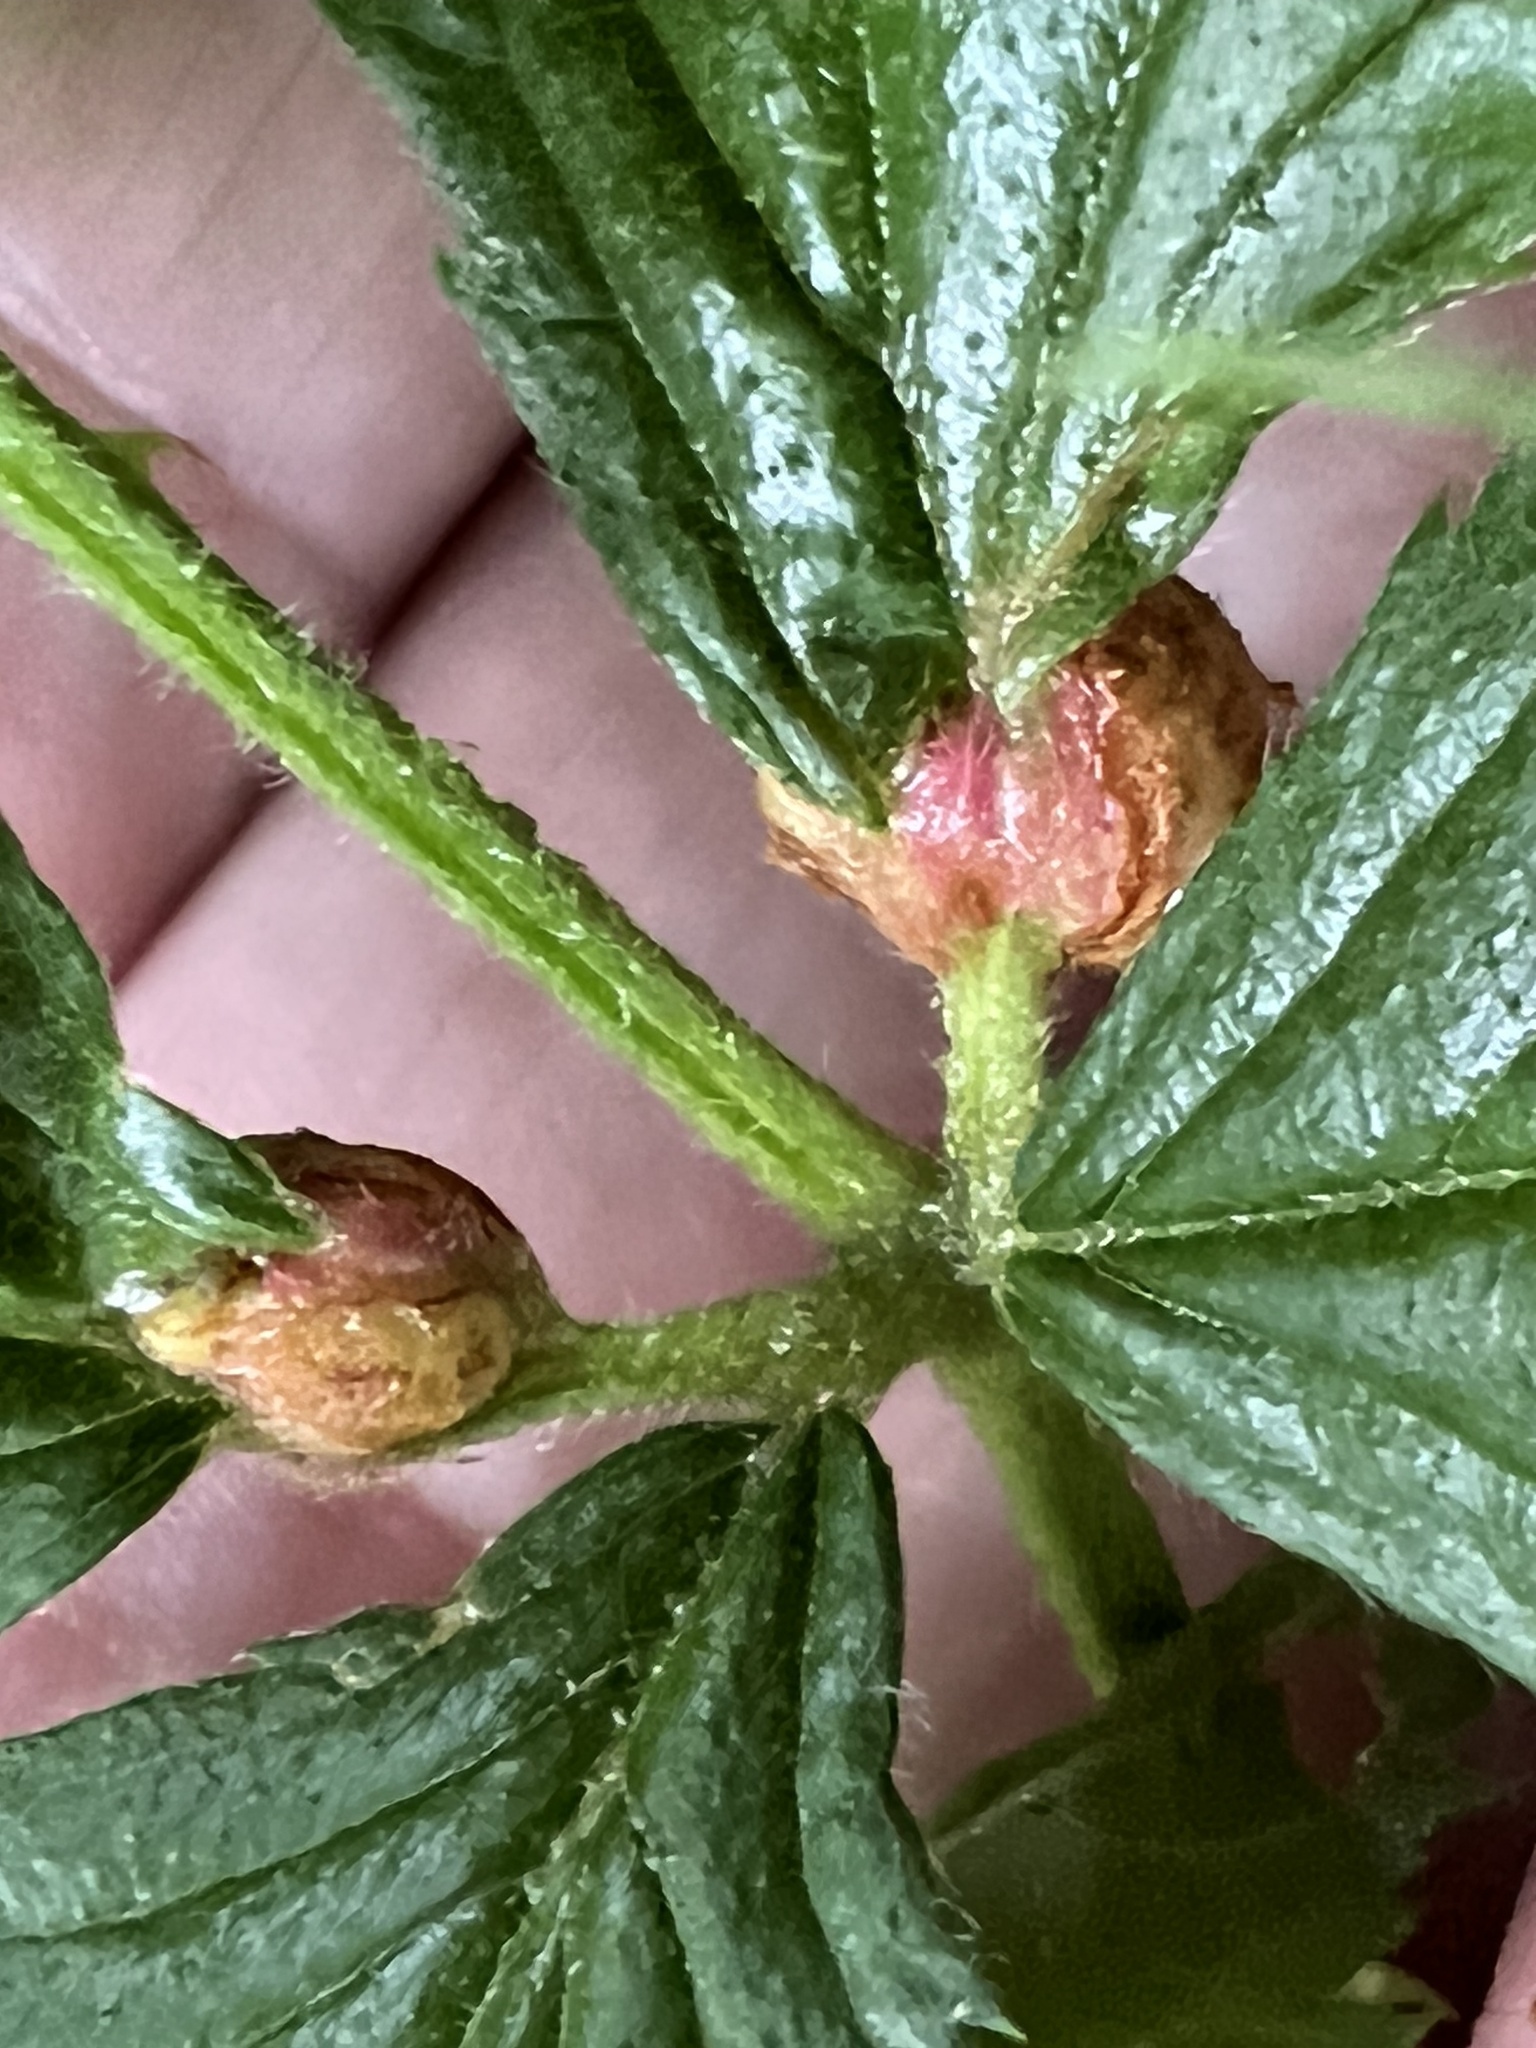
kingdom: Animalia
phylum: Arthropoda
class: Insecta
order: Diptera
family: Cecidomyiidae
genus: Neolasioptera
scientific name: Neolasioptera farinosa
